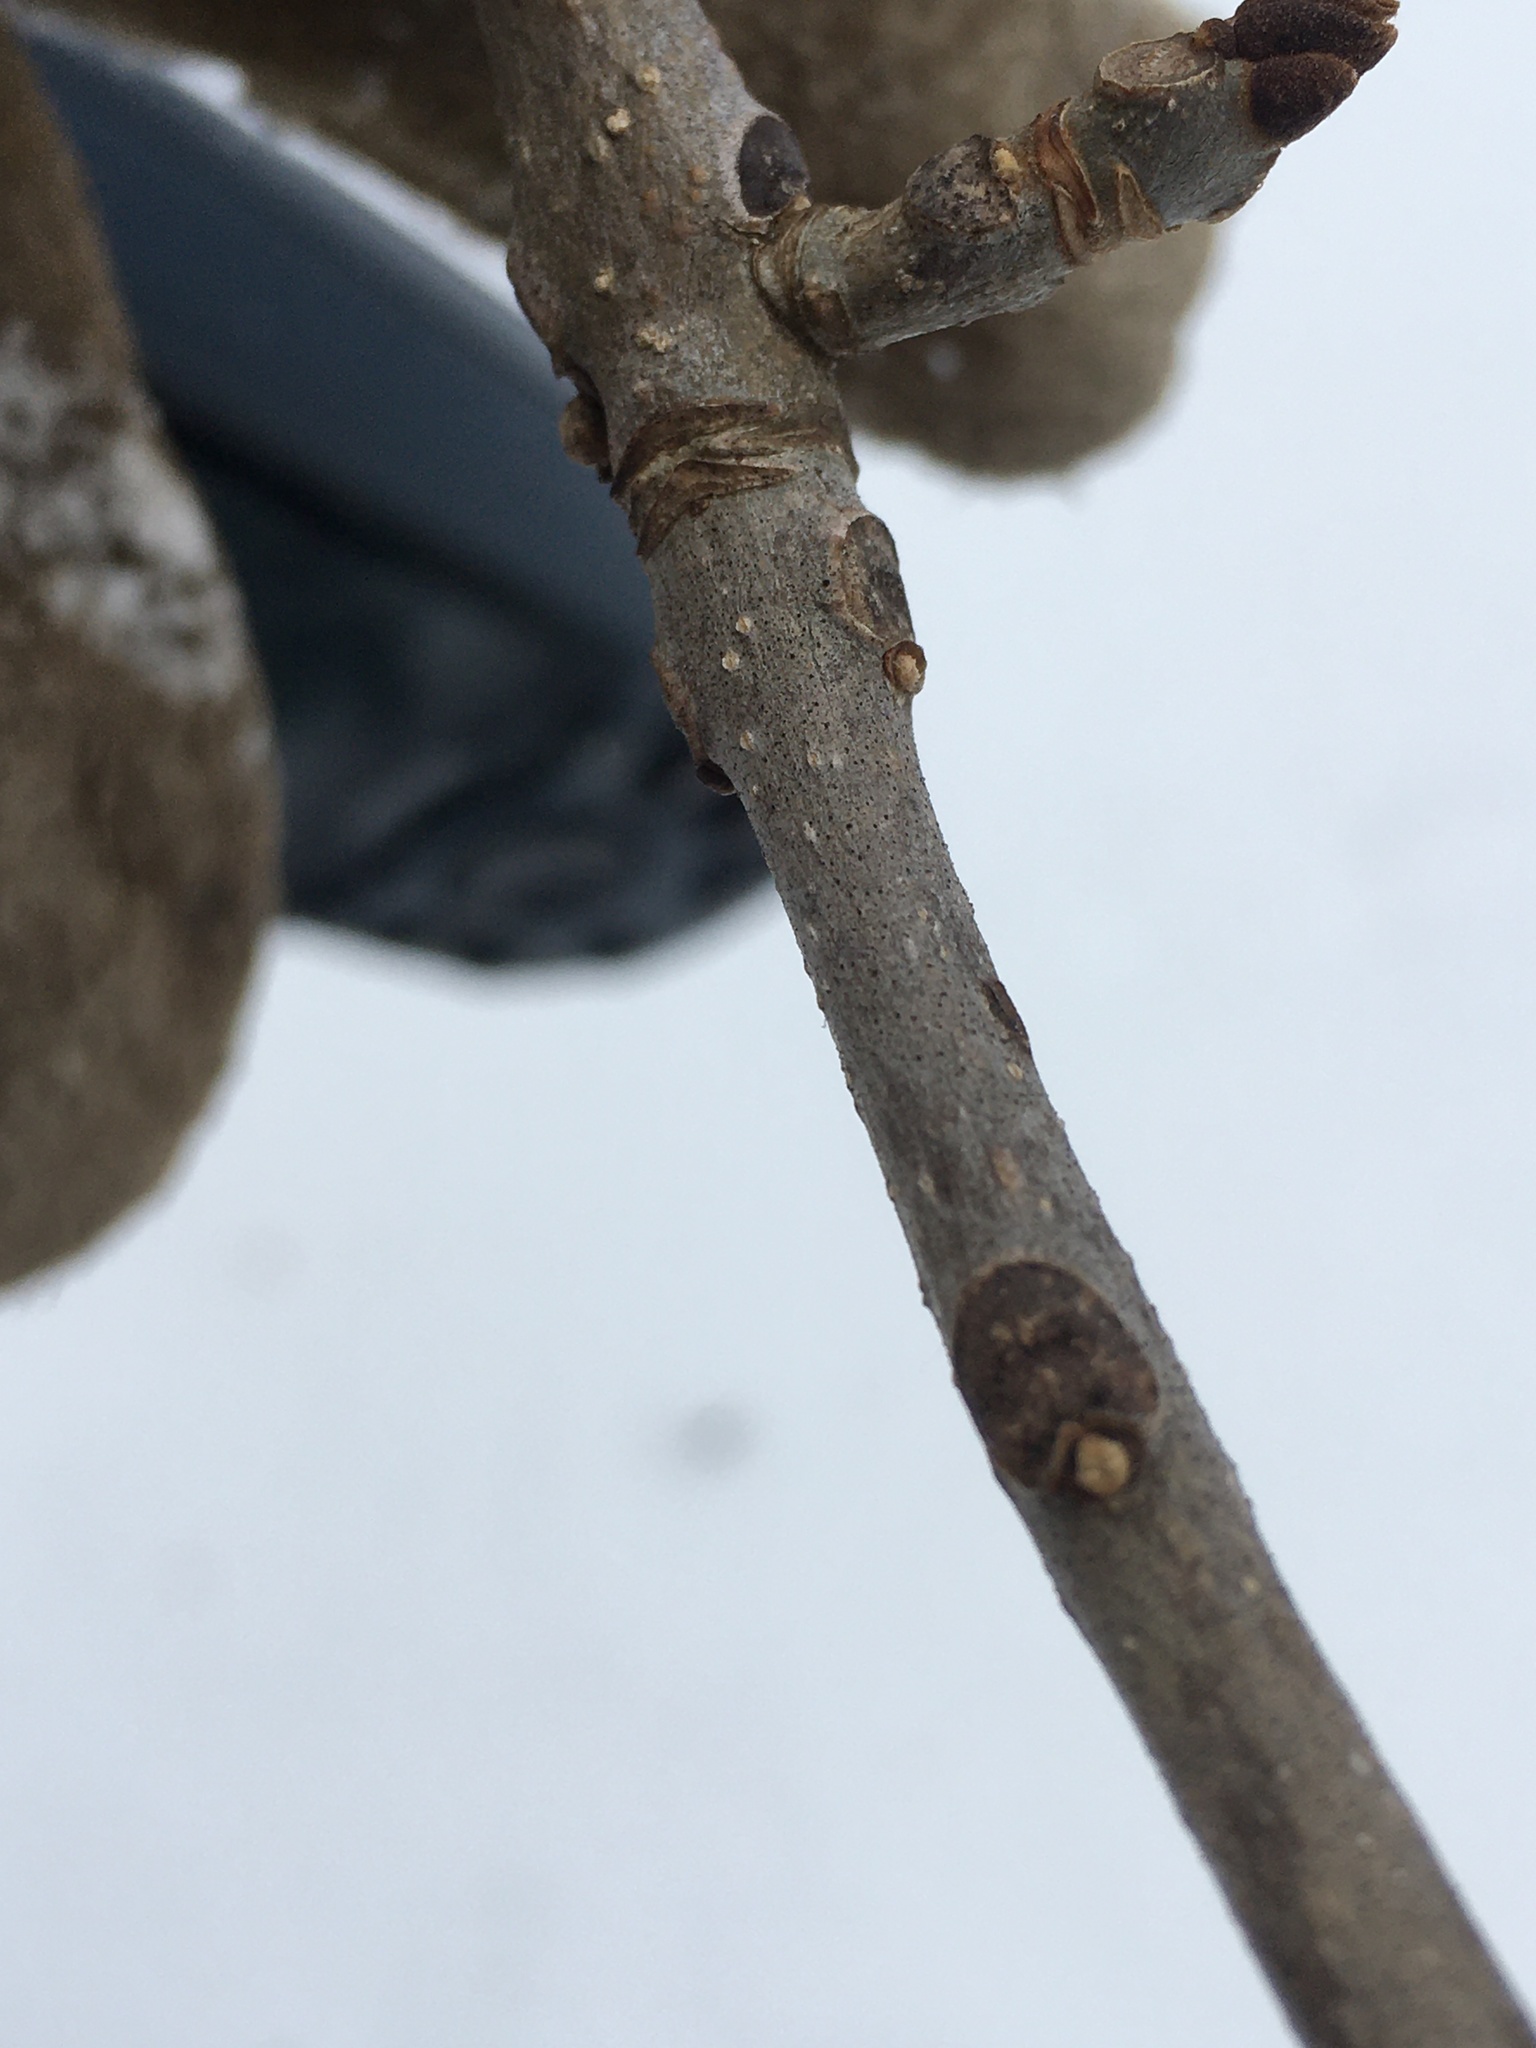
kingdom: Plantae
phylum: Tracheophyta
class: Magnoliopsida
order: Lamiales
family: Oleaceae
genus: Fraxinus
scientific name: Fraxinus nigra
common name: Black ash
